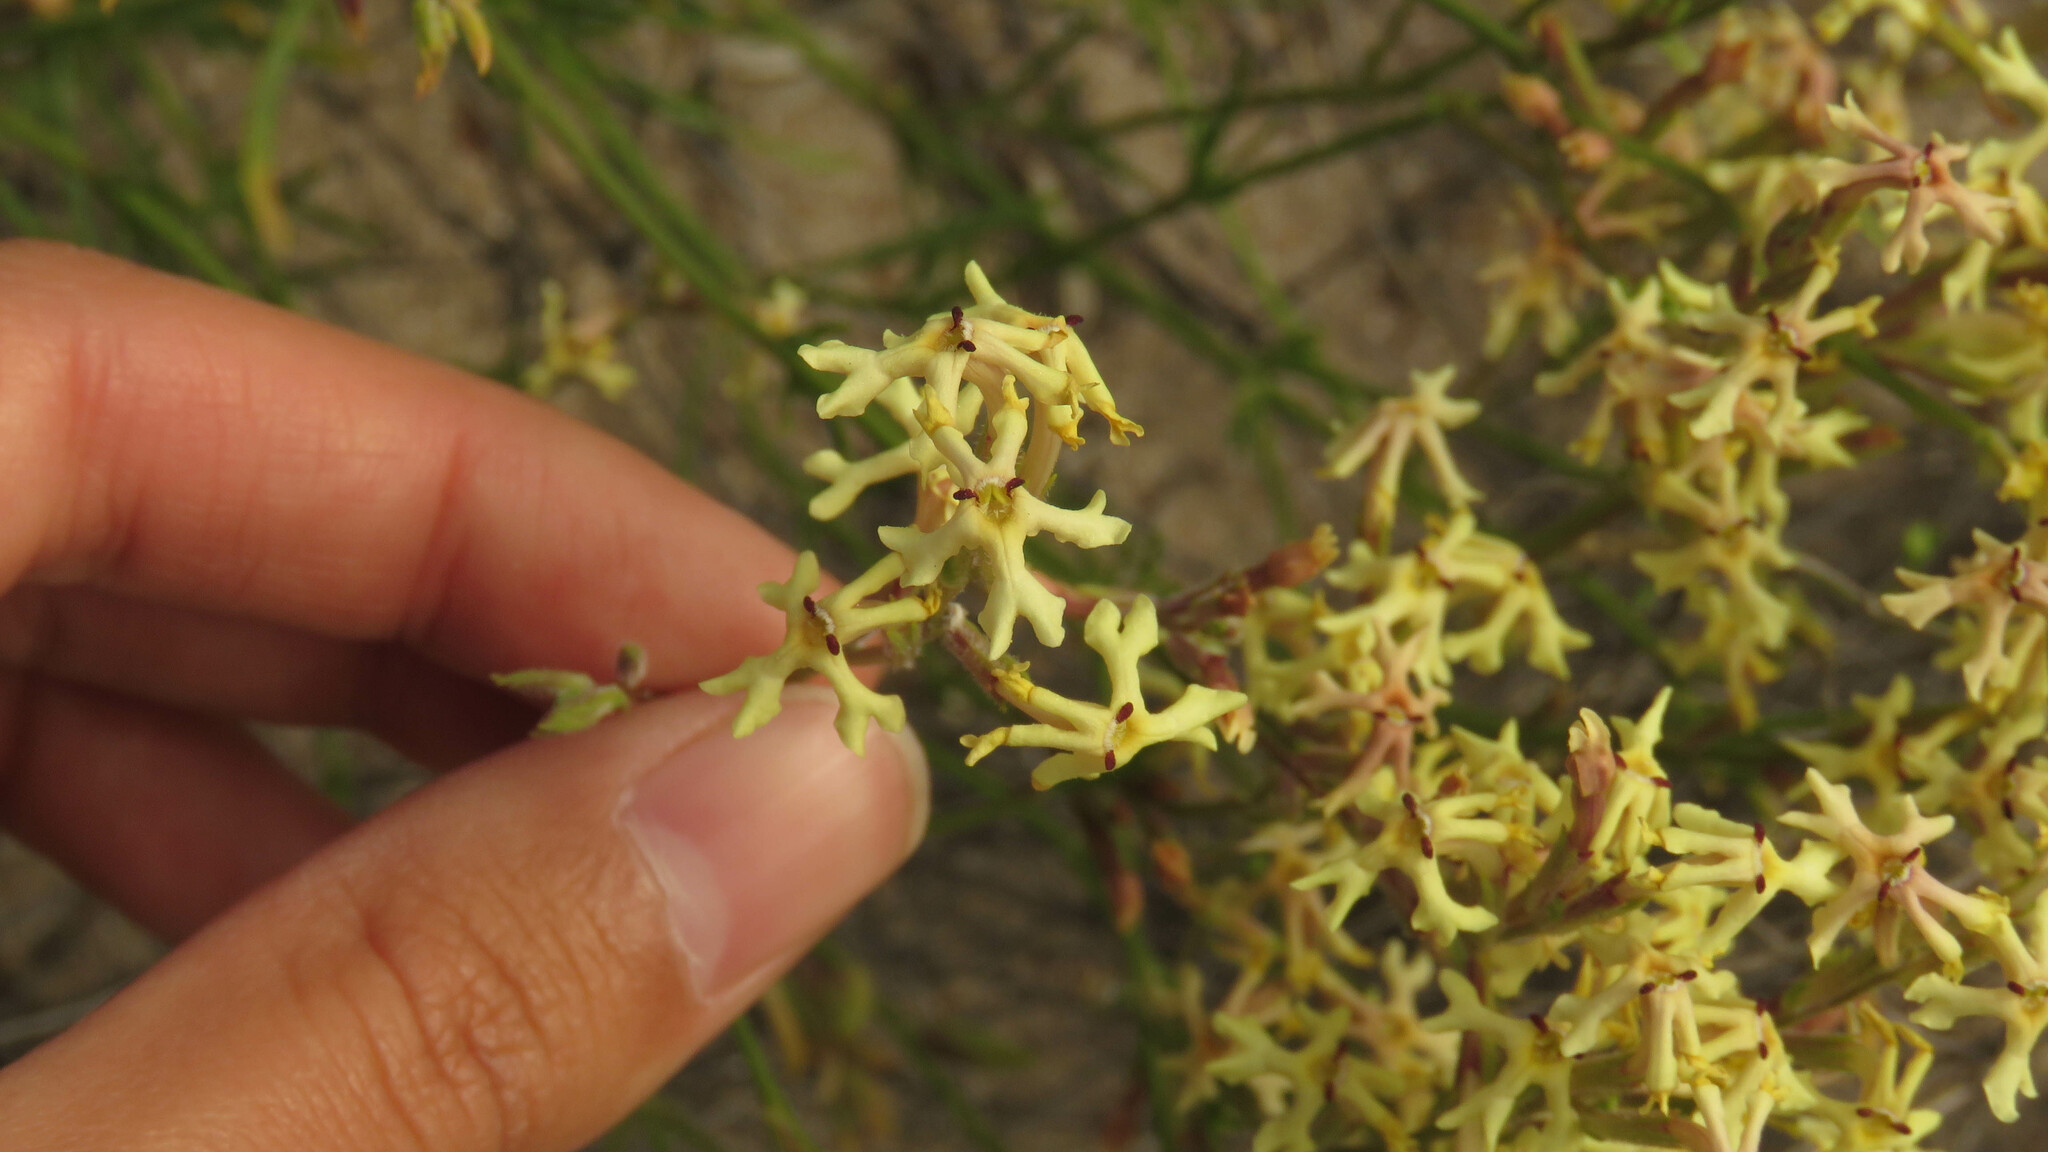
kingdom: Plantae
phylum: Tracheophyta
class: Magnoliopsida
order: Lamiales
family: Verbenaceae
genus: Verbena
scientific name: Verbena flava
